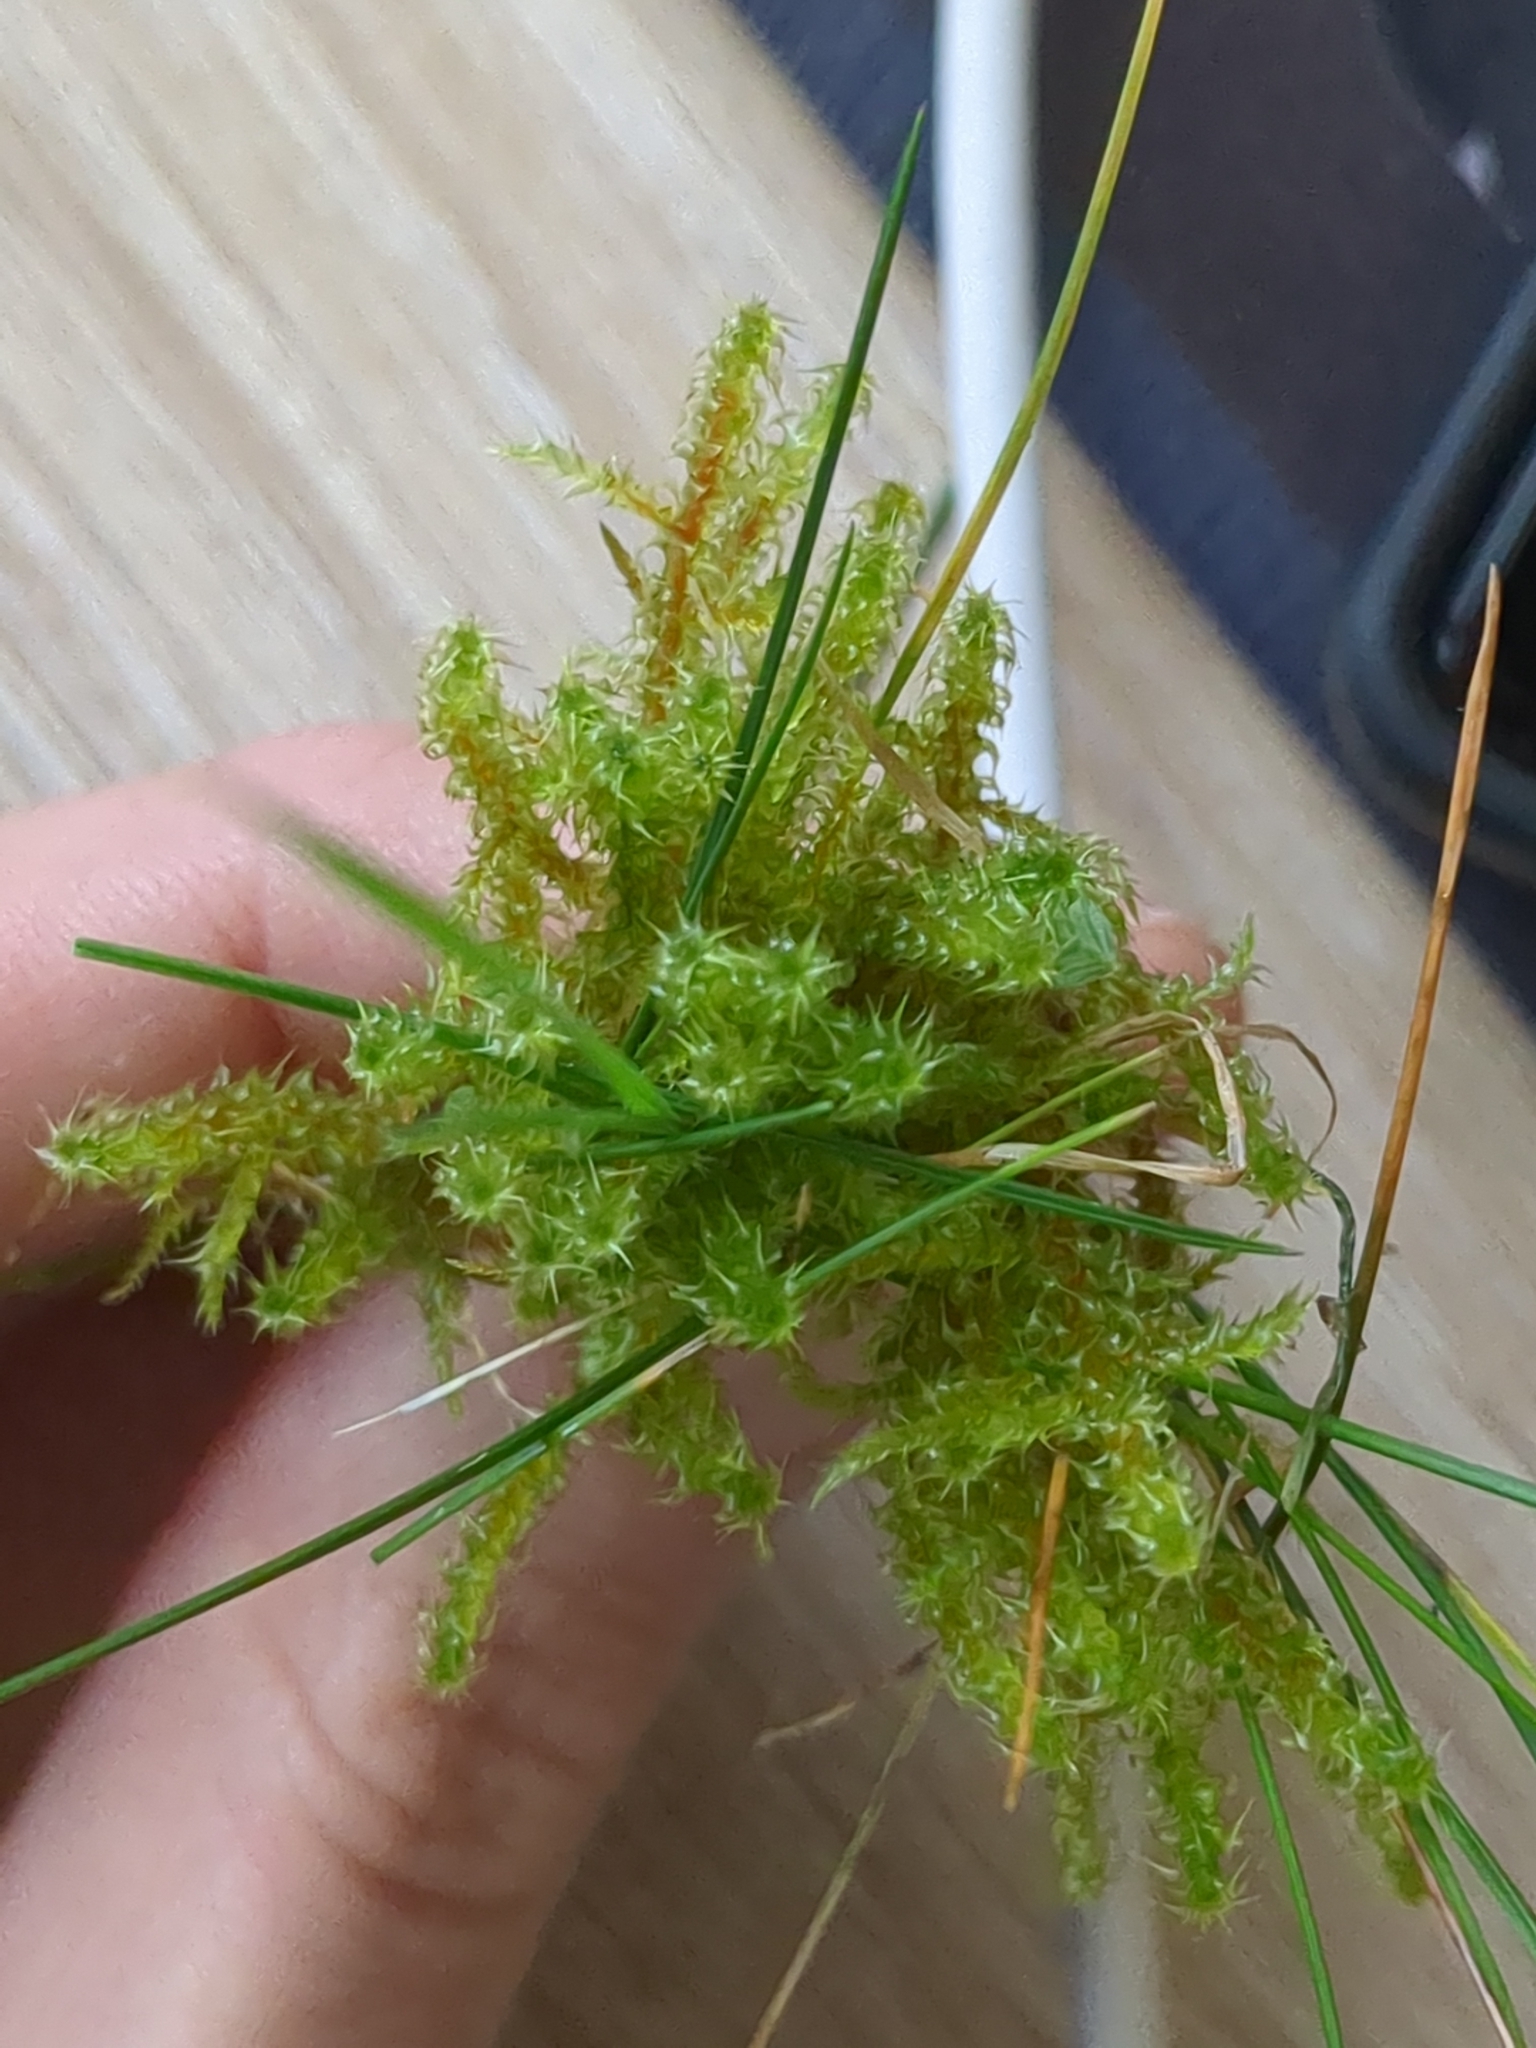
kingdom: Plantae
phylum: Bryophyta
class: Bryopsida
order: Hypnales
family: Hylocomiaceae
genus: Rhytidiadelphus
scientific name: Rhytidiadelphus squarrosus
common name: Springy turf-moss
